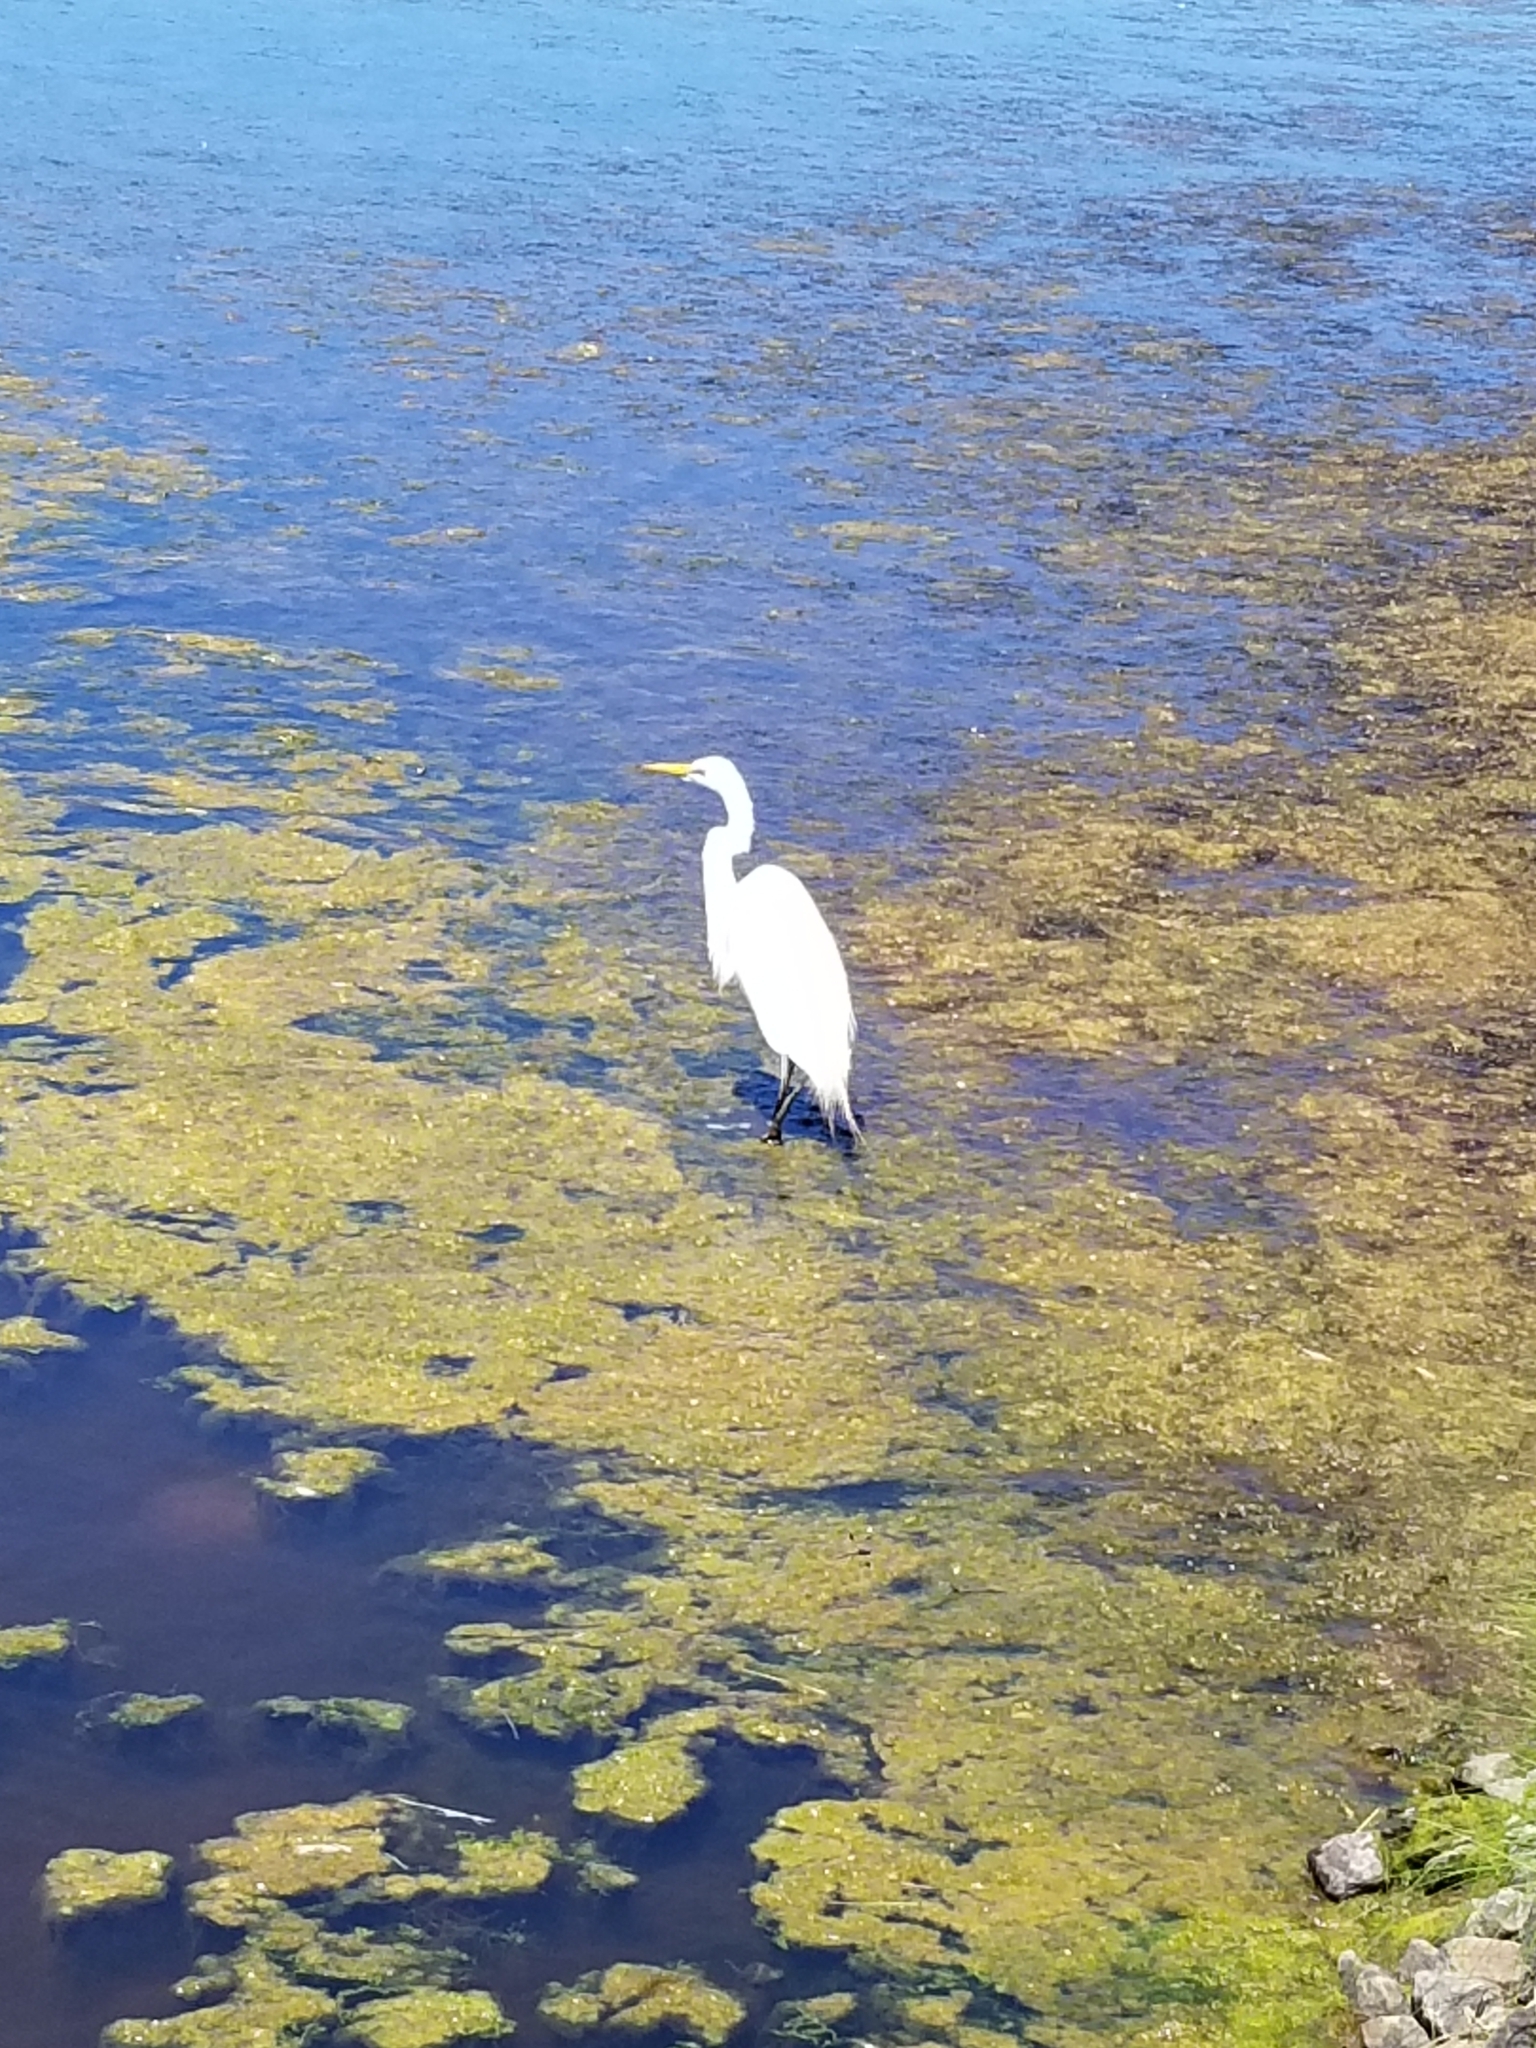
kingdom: Animalia
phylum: Chordata
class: Aves
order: Pelecaniformes
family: Ardeidae
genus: Ardea
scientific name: Ardea alba
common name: Great egret
